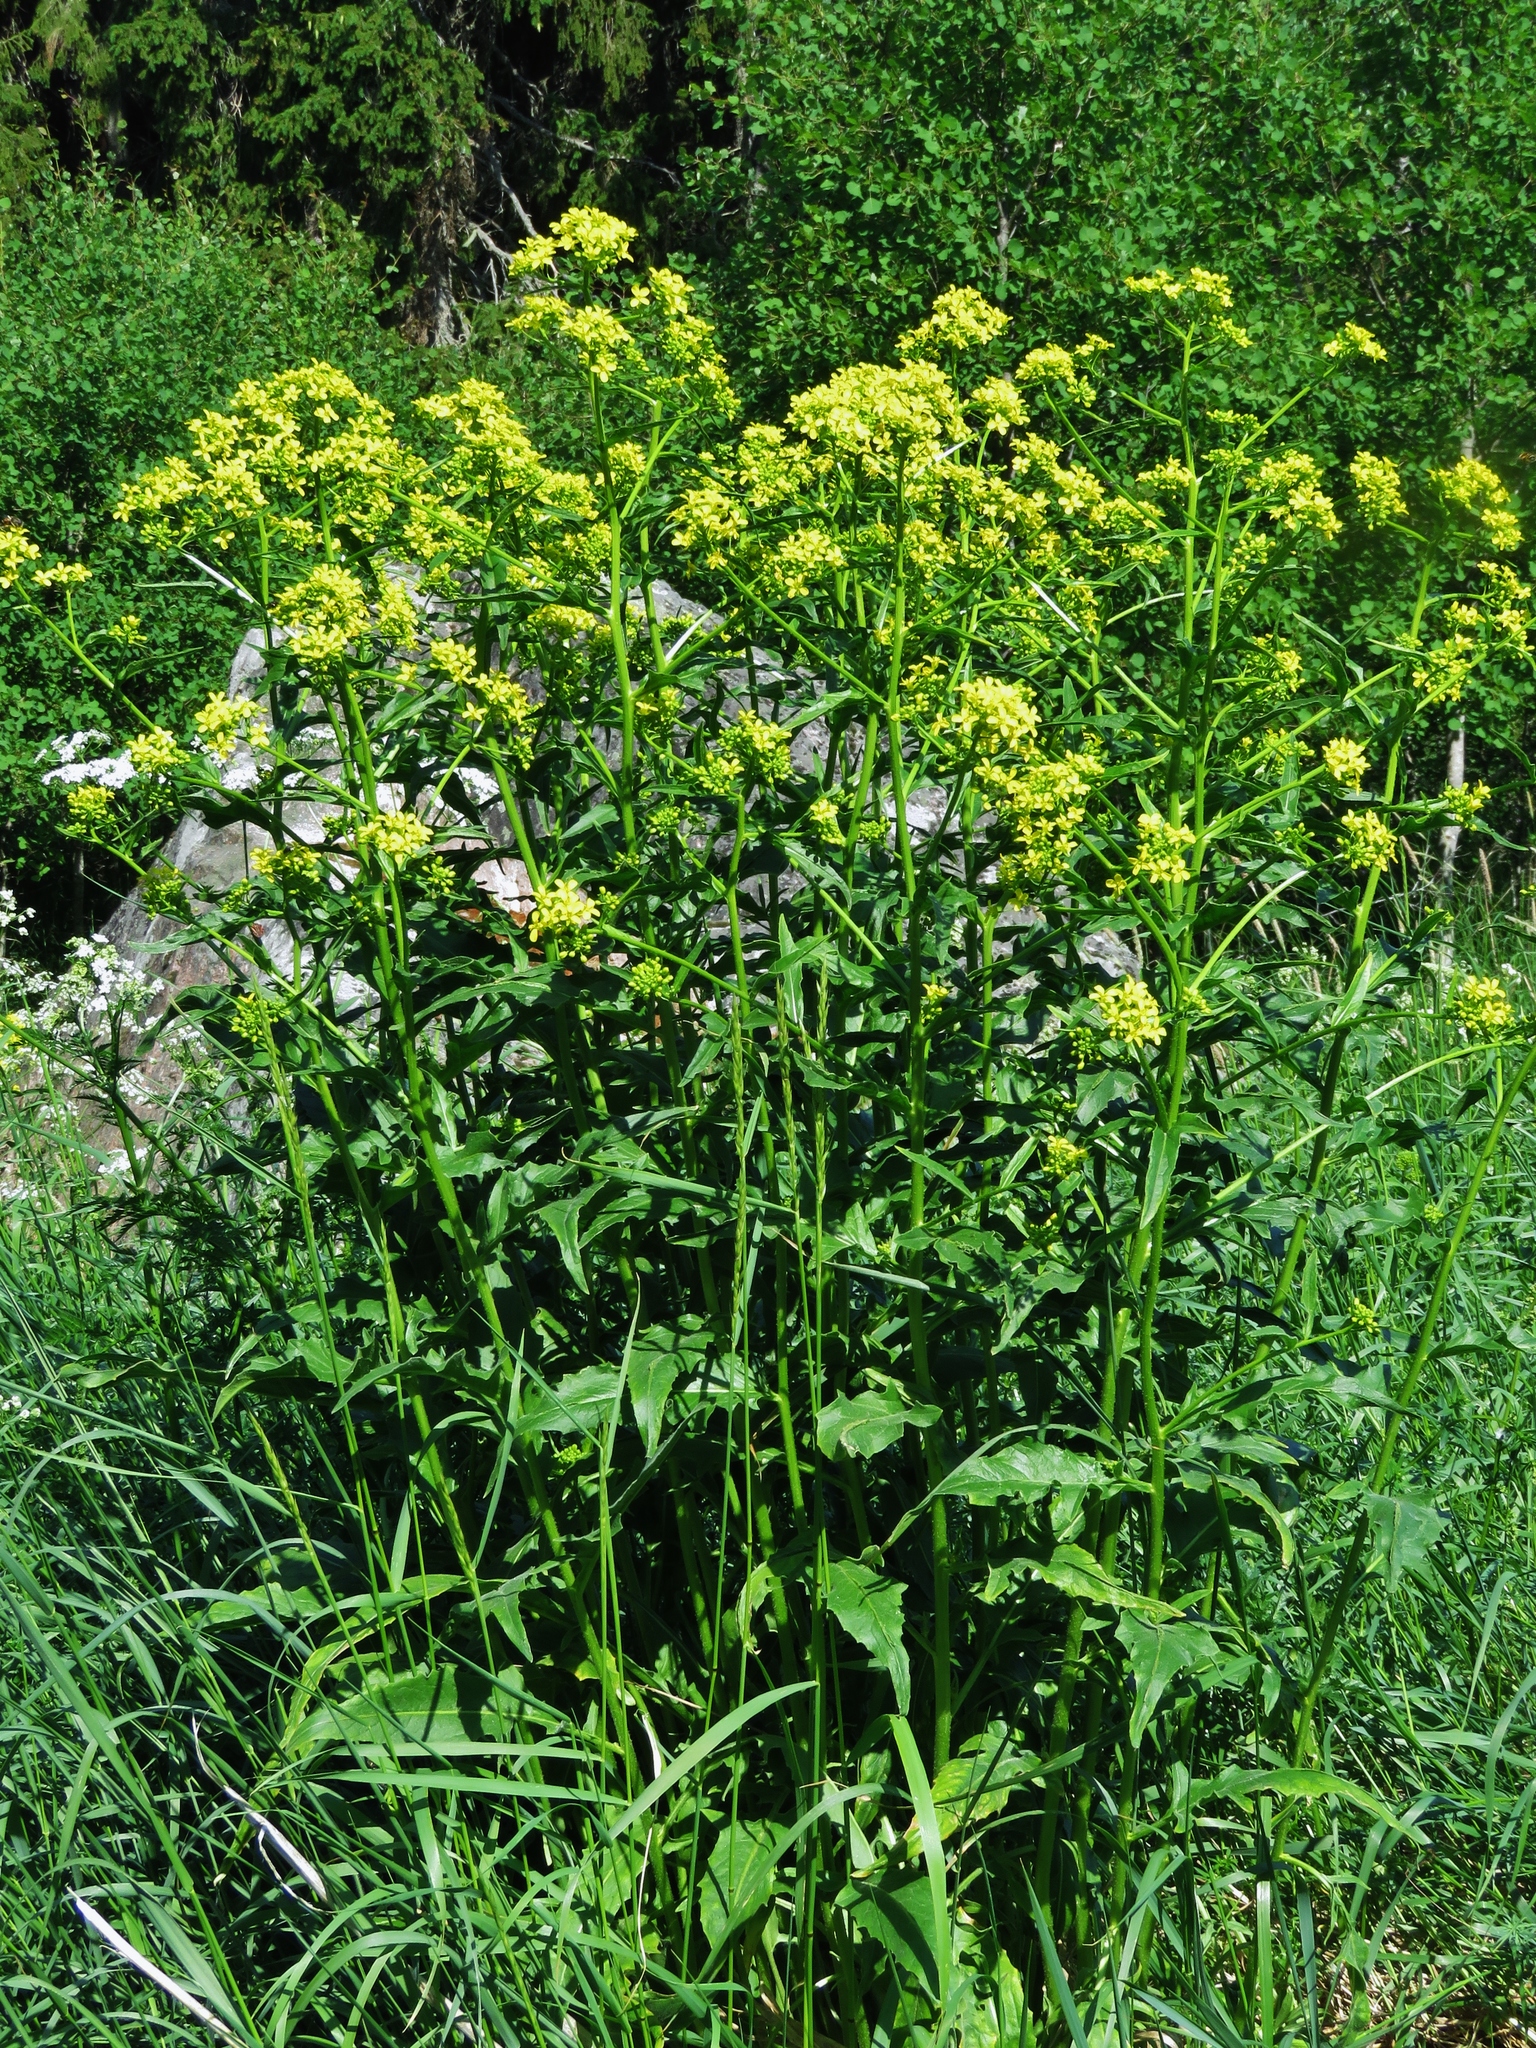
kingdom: Plantae
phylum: Tracheophyta
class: Magnoliopsida
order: Brassicales
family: Brassicaceae
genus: Bunias
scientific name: Bunias orientalis
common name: Warty-cabbage
